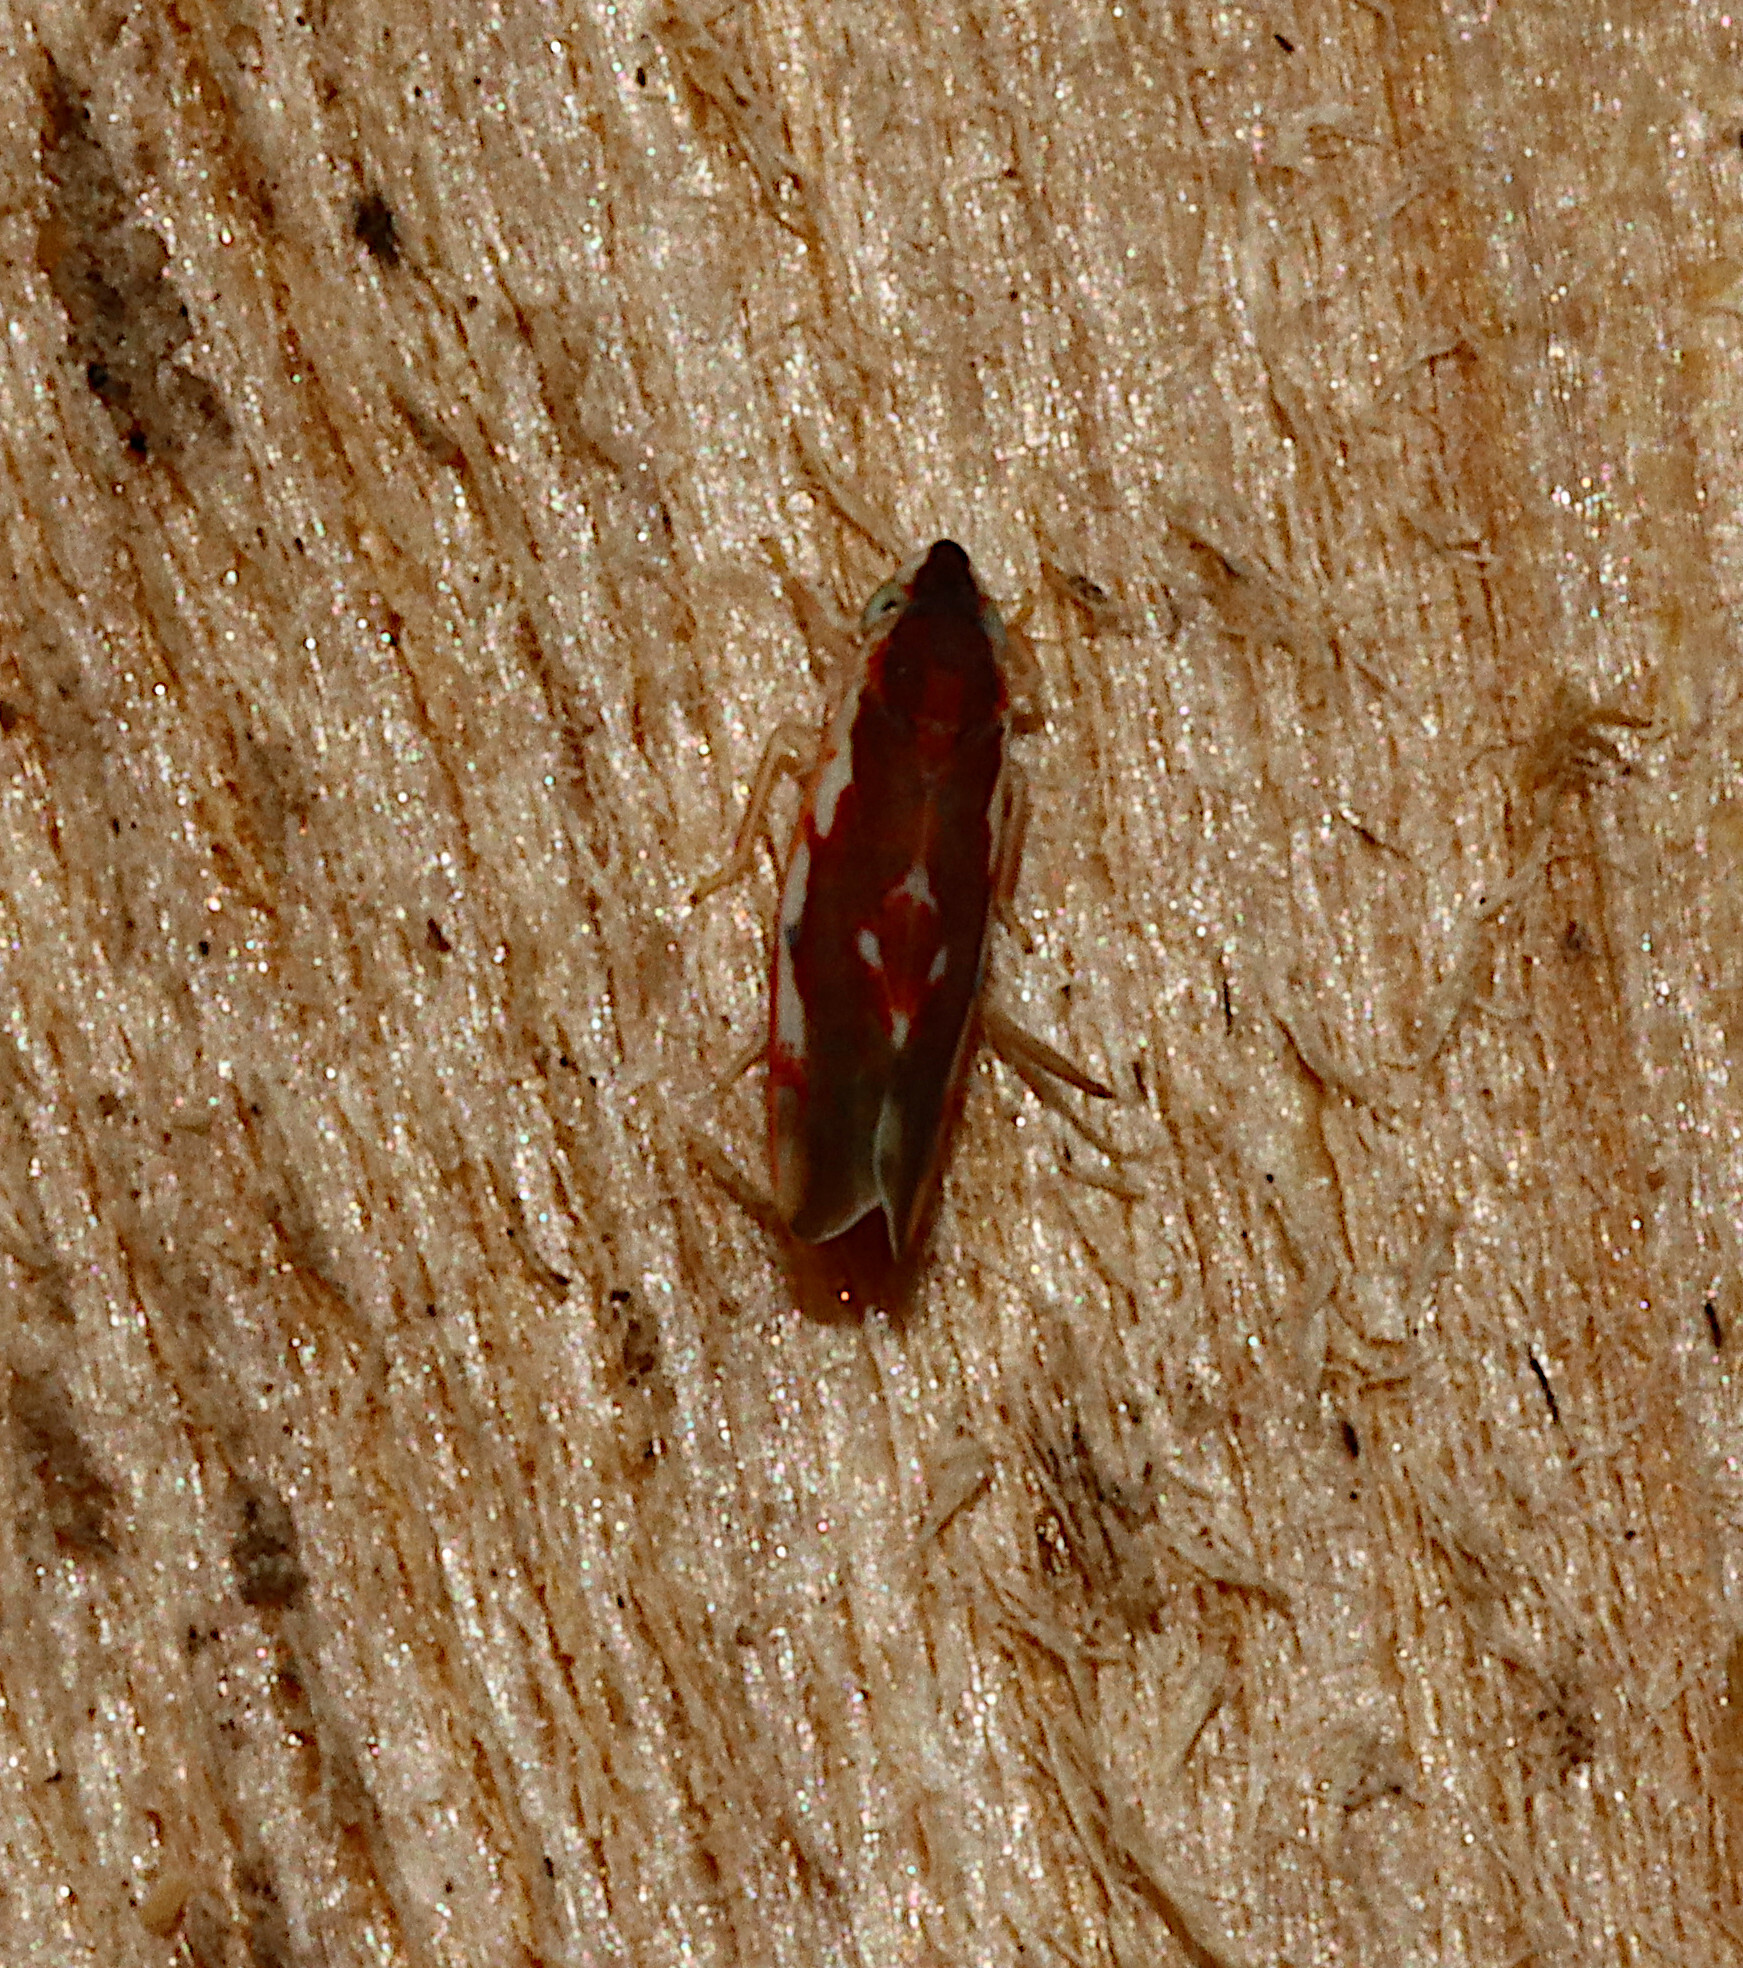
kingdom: Animalia
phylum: Arthropoda
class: Insecta
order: Hemiptera
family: Cicadellidae
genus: Erythroneura
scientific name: Erythroneura aclys
